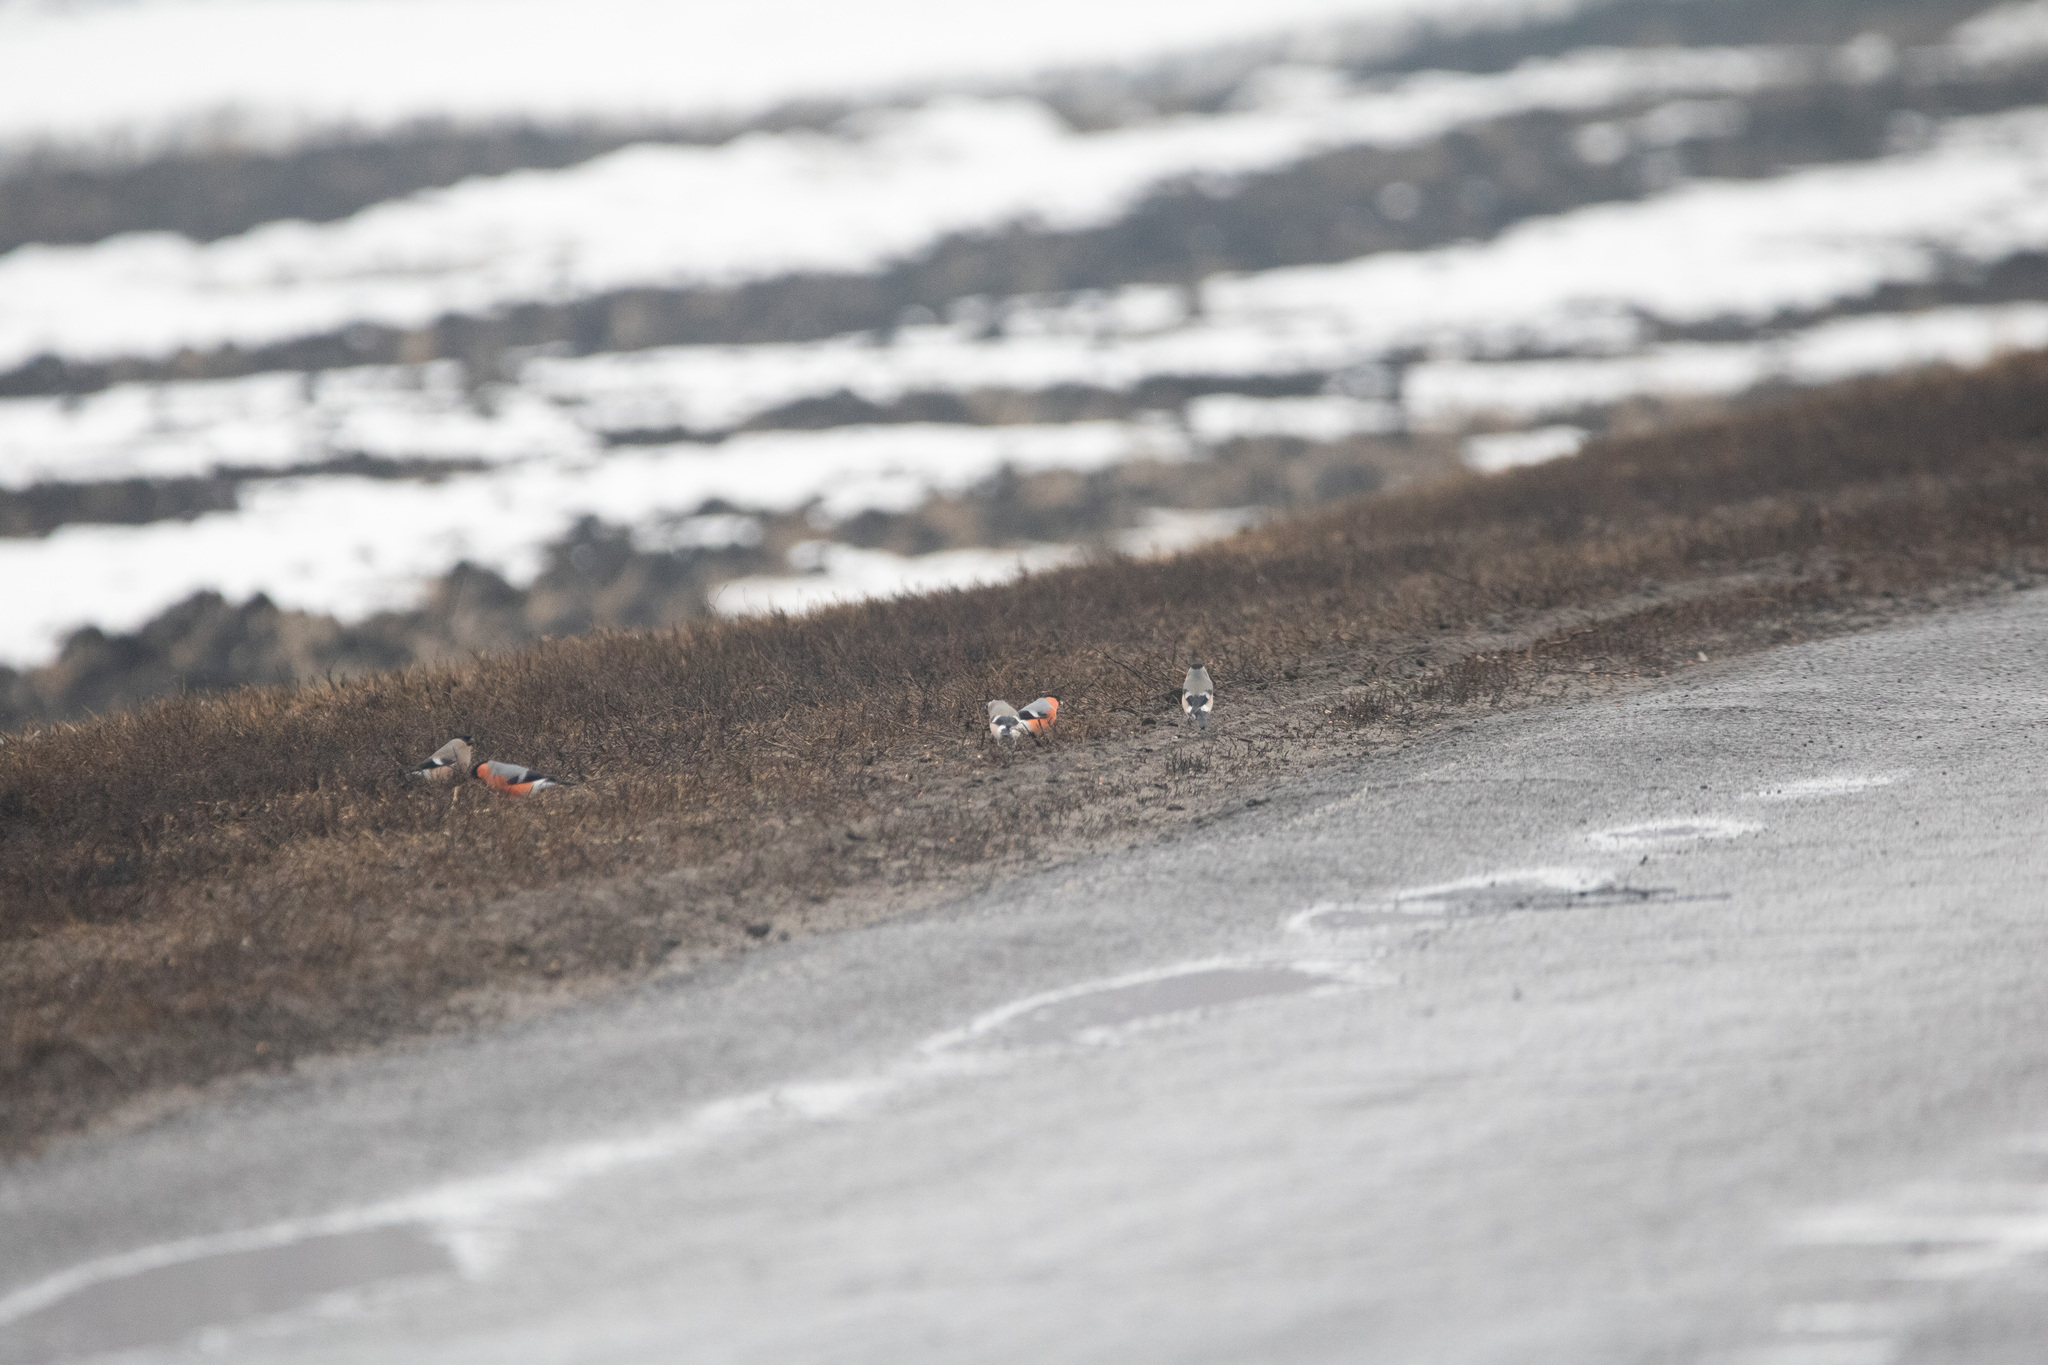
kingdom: Animalia
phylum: Chordata
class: Aves
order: Passeriformes
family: Fringillidae
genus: Pyrrhula
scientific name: Pyrrhula pyrrhula
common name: Eurasian bullfinch
